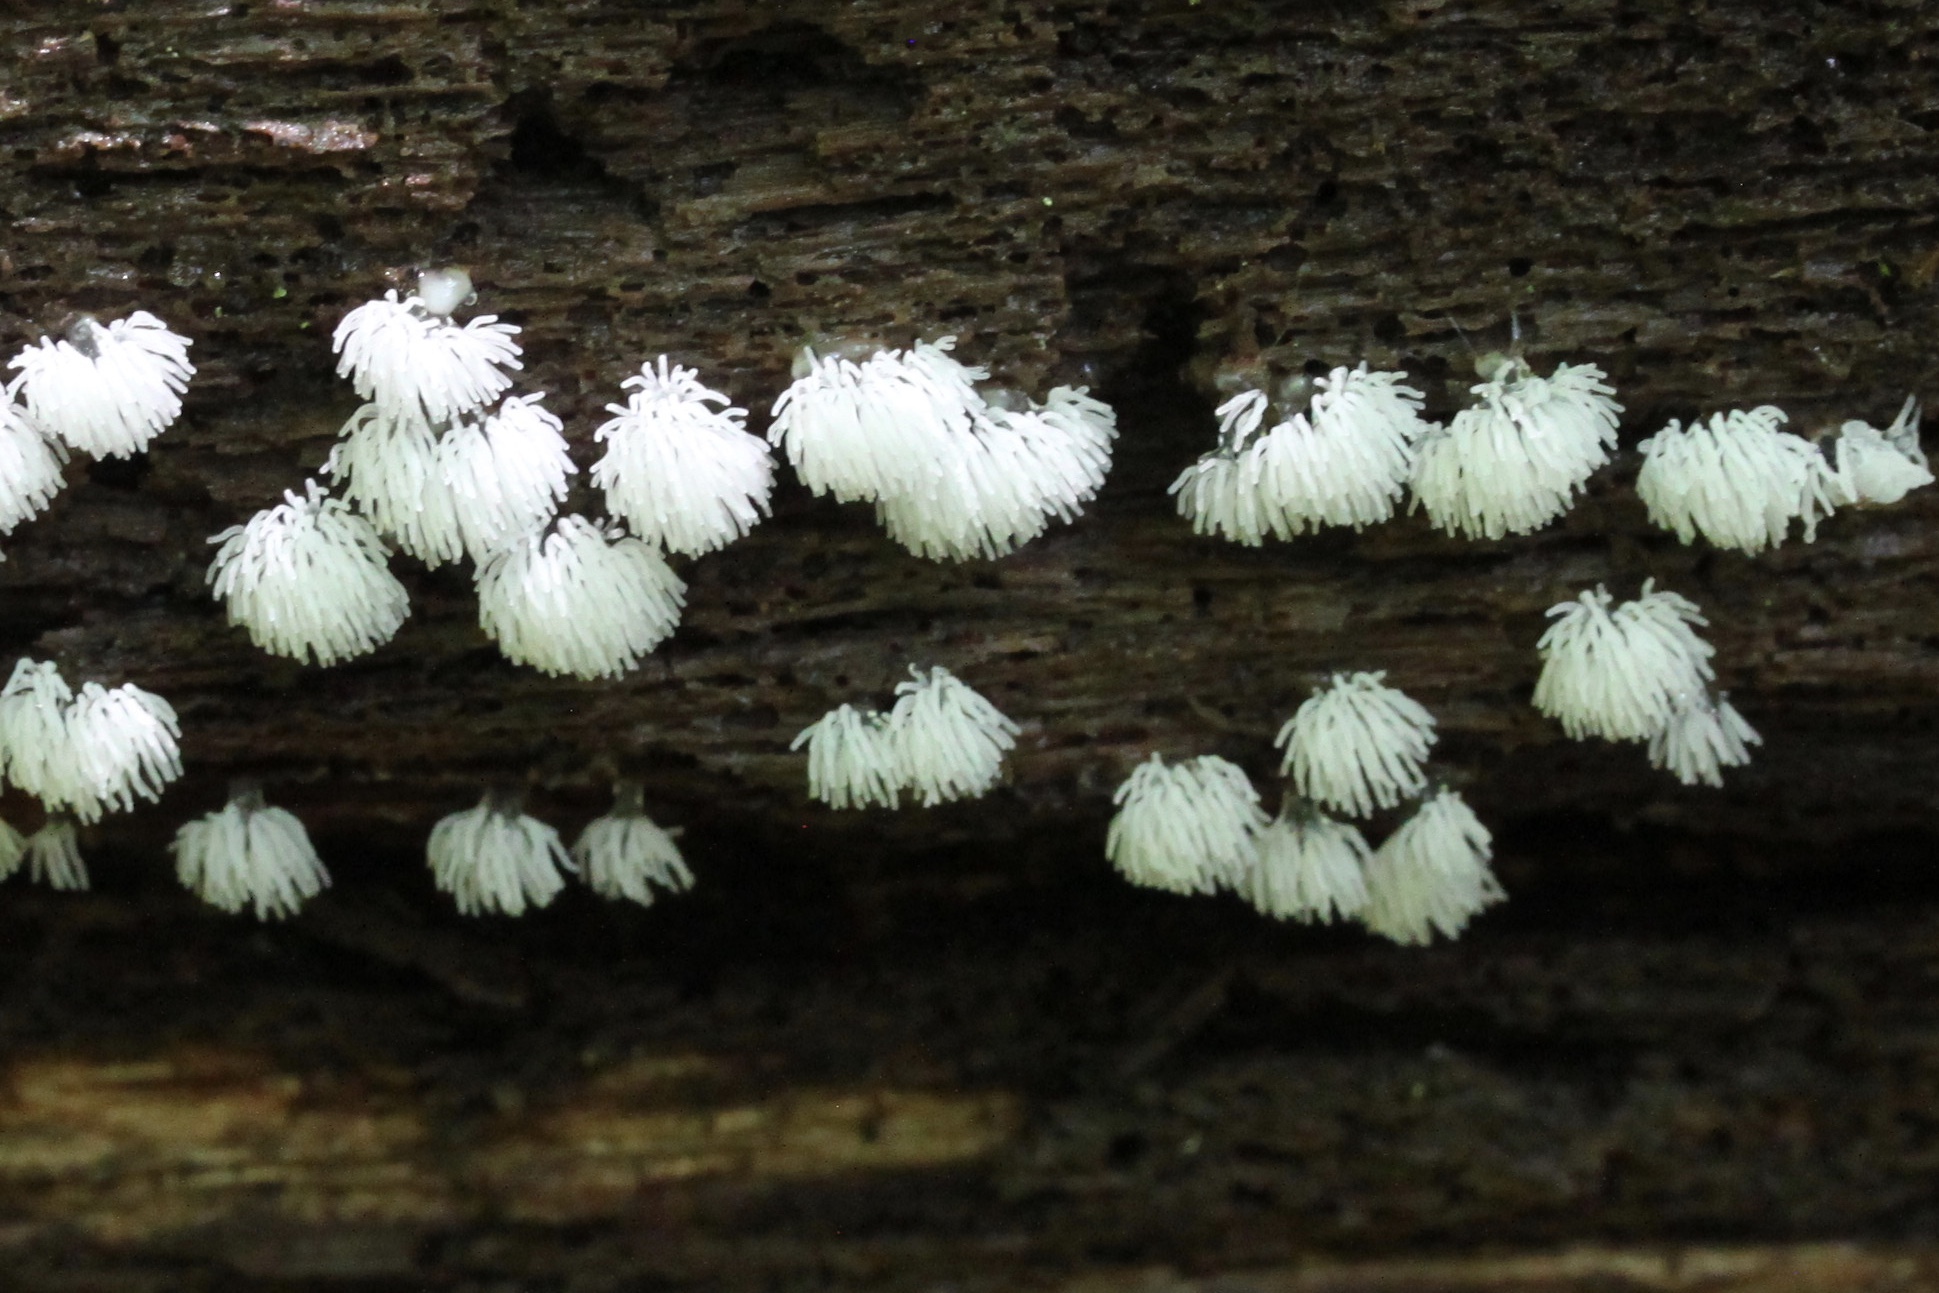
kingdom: Protozoa
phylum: Mycetozoa
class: Protosteliomycetes
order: Ceratiomyxales
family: Ceratiomyxaceae
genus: Ceratiomyxa
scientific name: Ceratiomyxa fruticulosa
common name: Honeycomb coral slime mold
